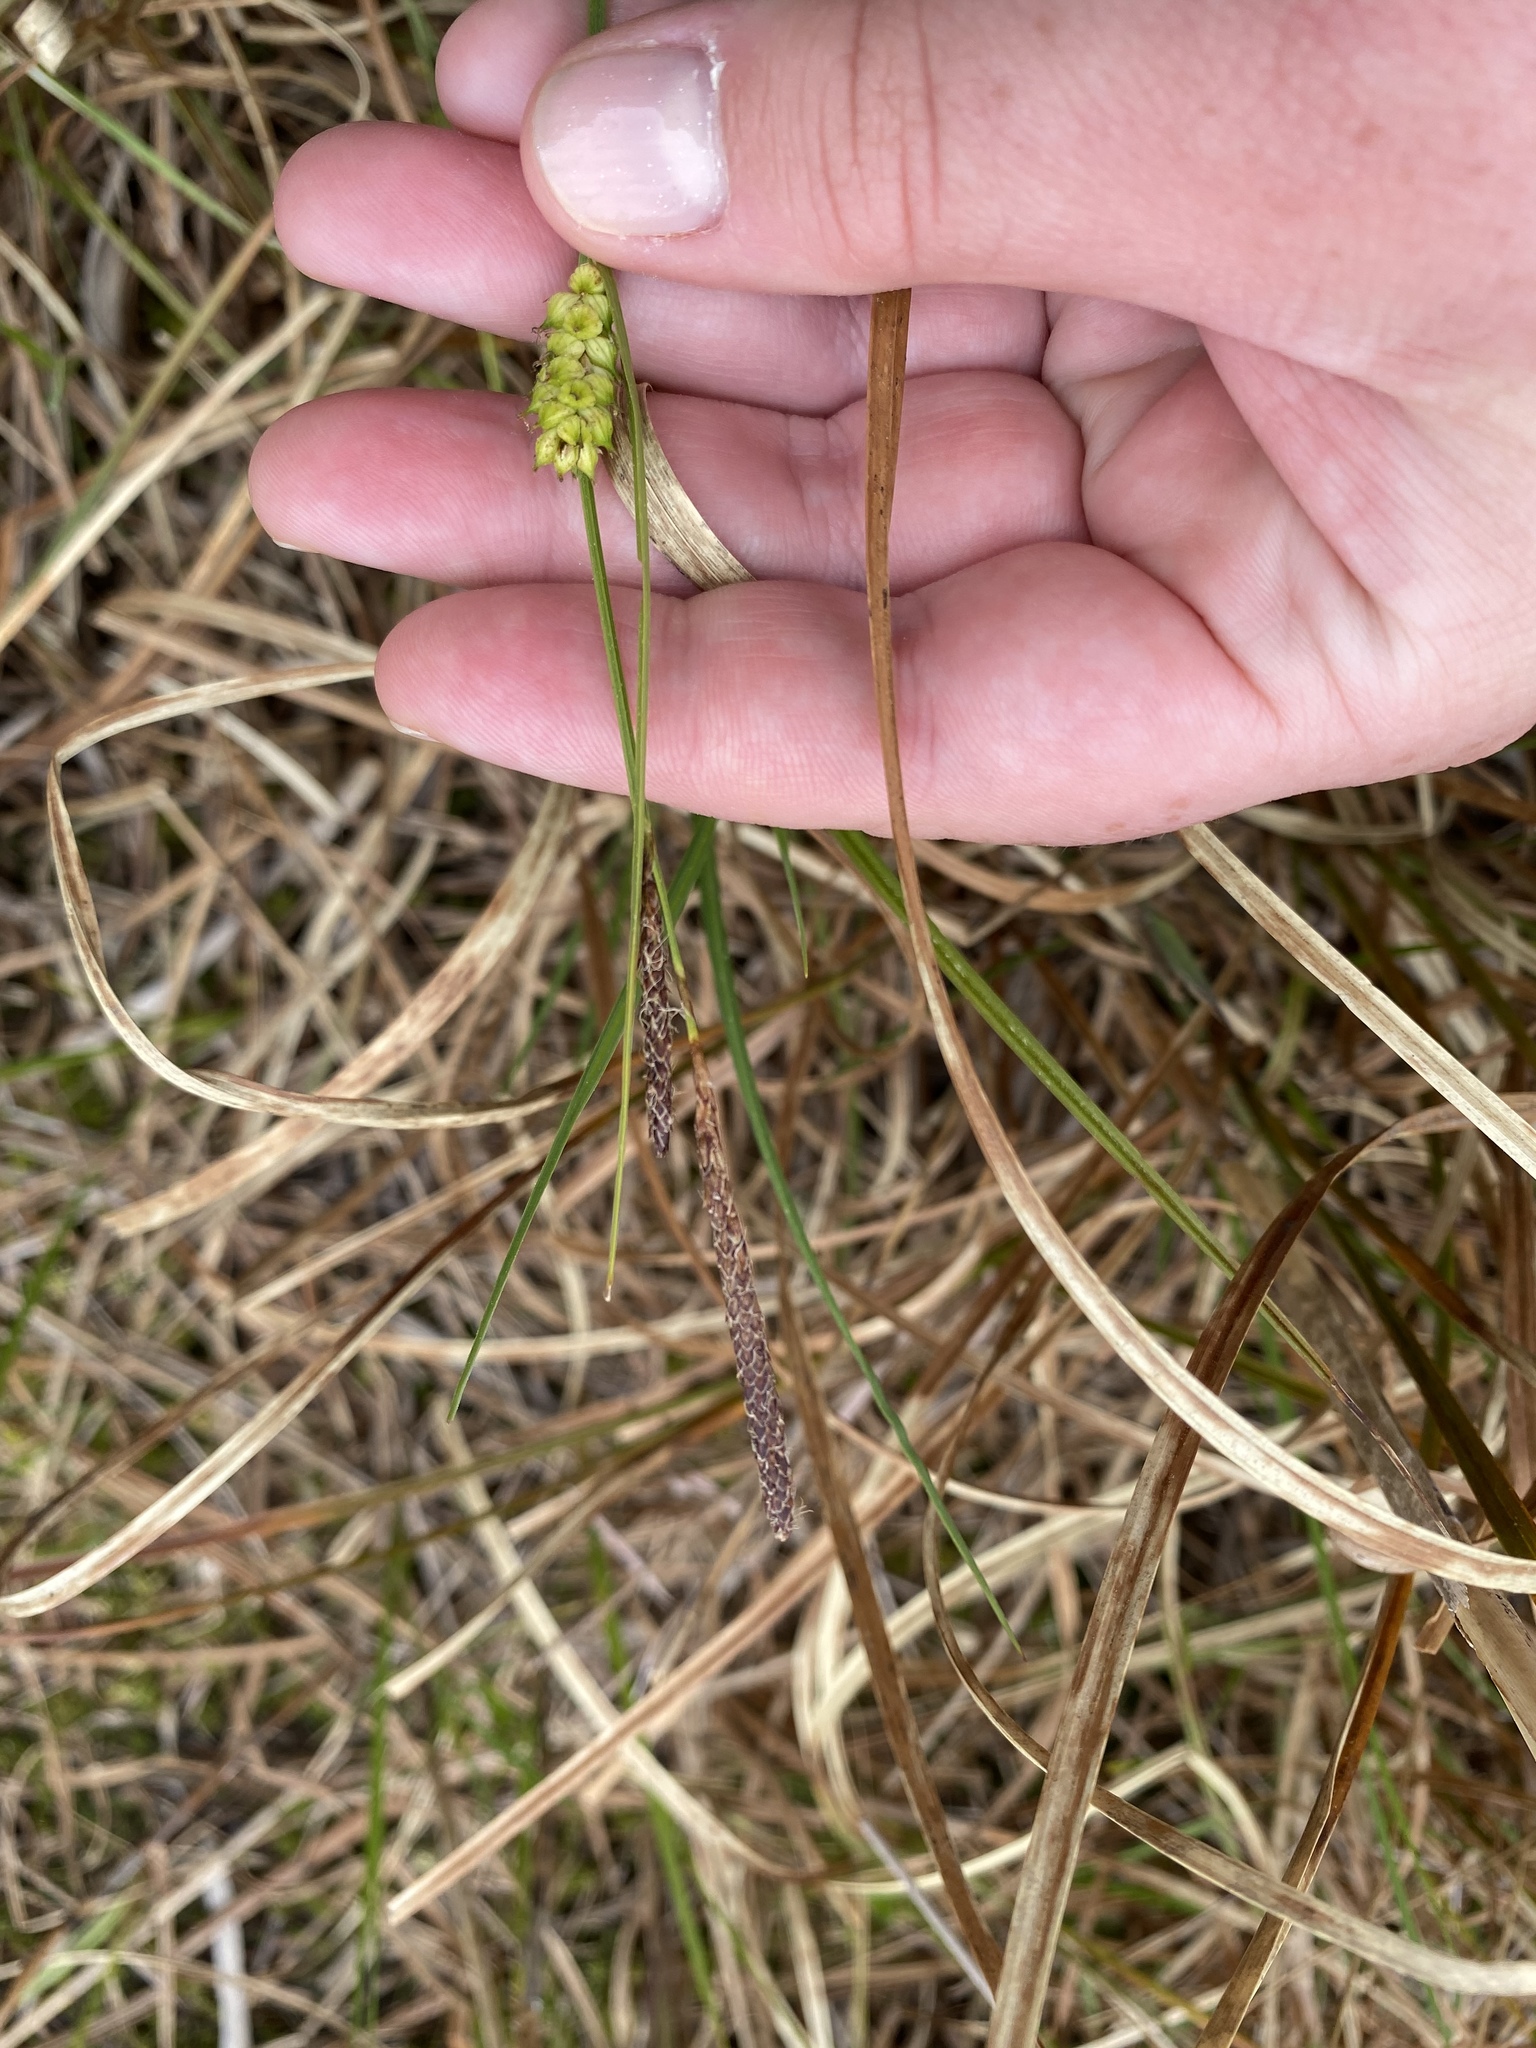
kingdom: Plantae
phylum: Tracheophyta
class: Liliopsida
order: Poales
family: Cyperaceae
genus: Carex
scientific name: Carex striata
